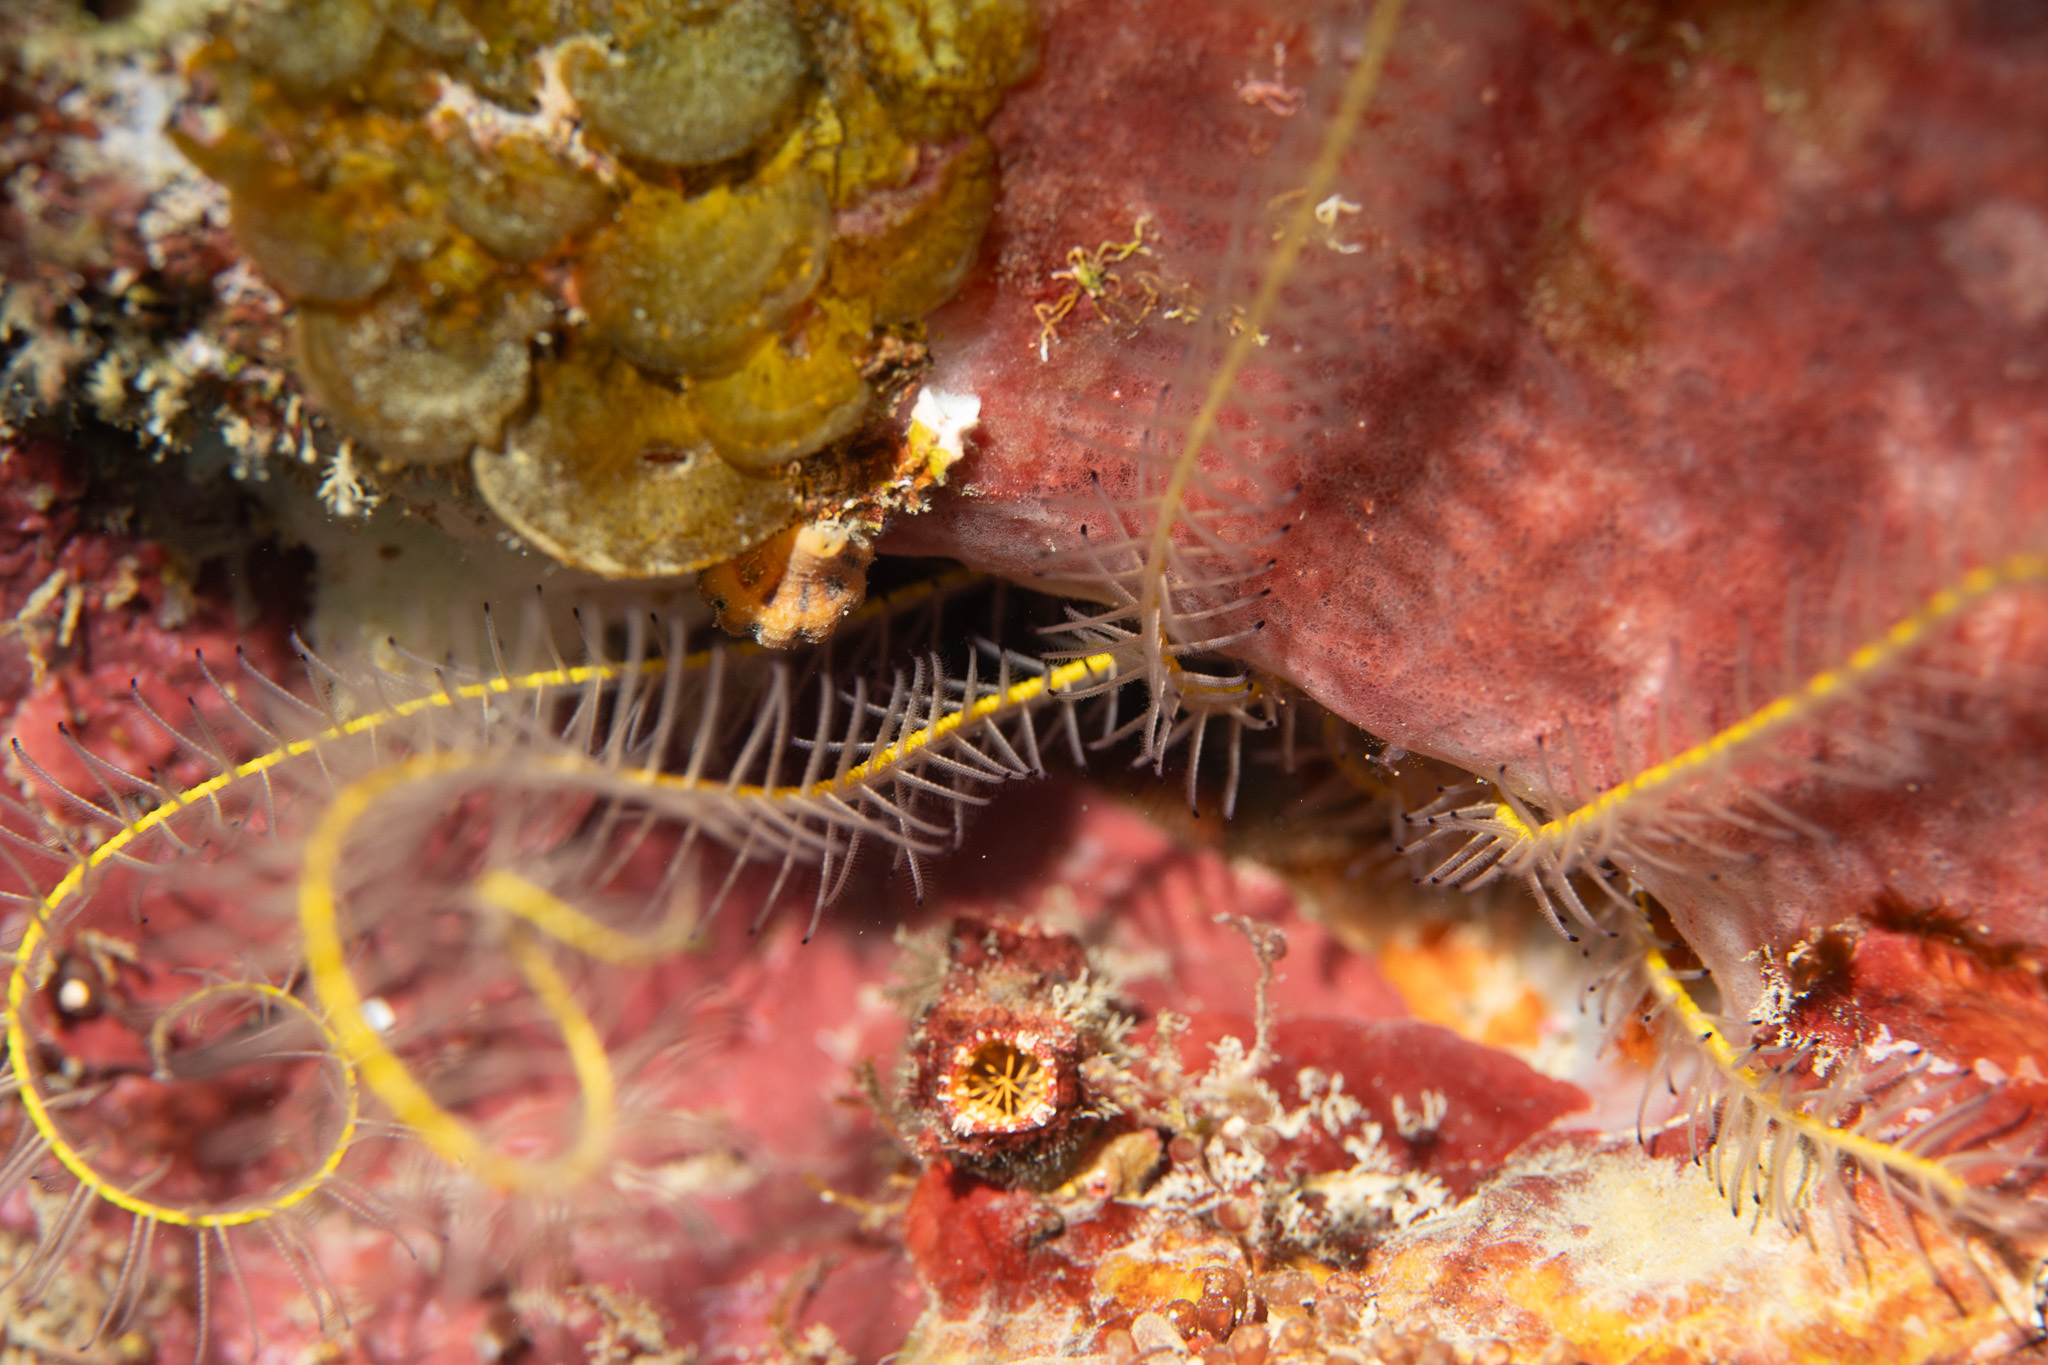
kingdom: Animalia
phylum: Echinodermata
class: Crinoidea
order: Comatulida
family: Comatulidae
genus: Davidaster
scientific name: Davidaster discoideus
